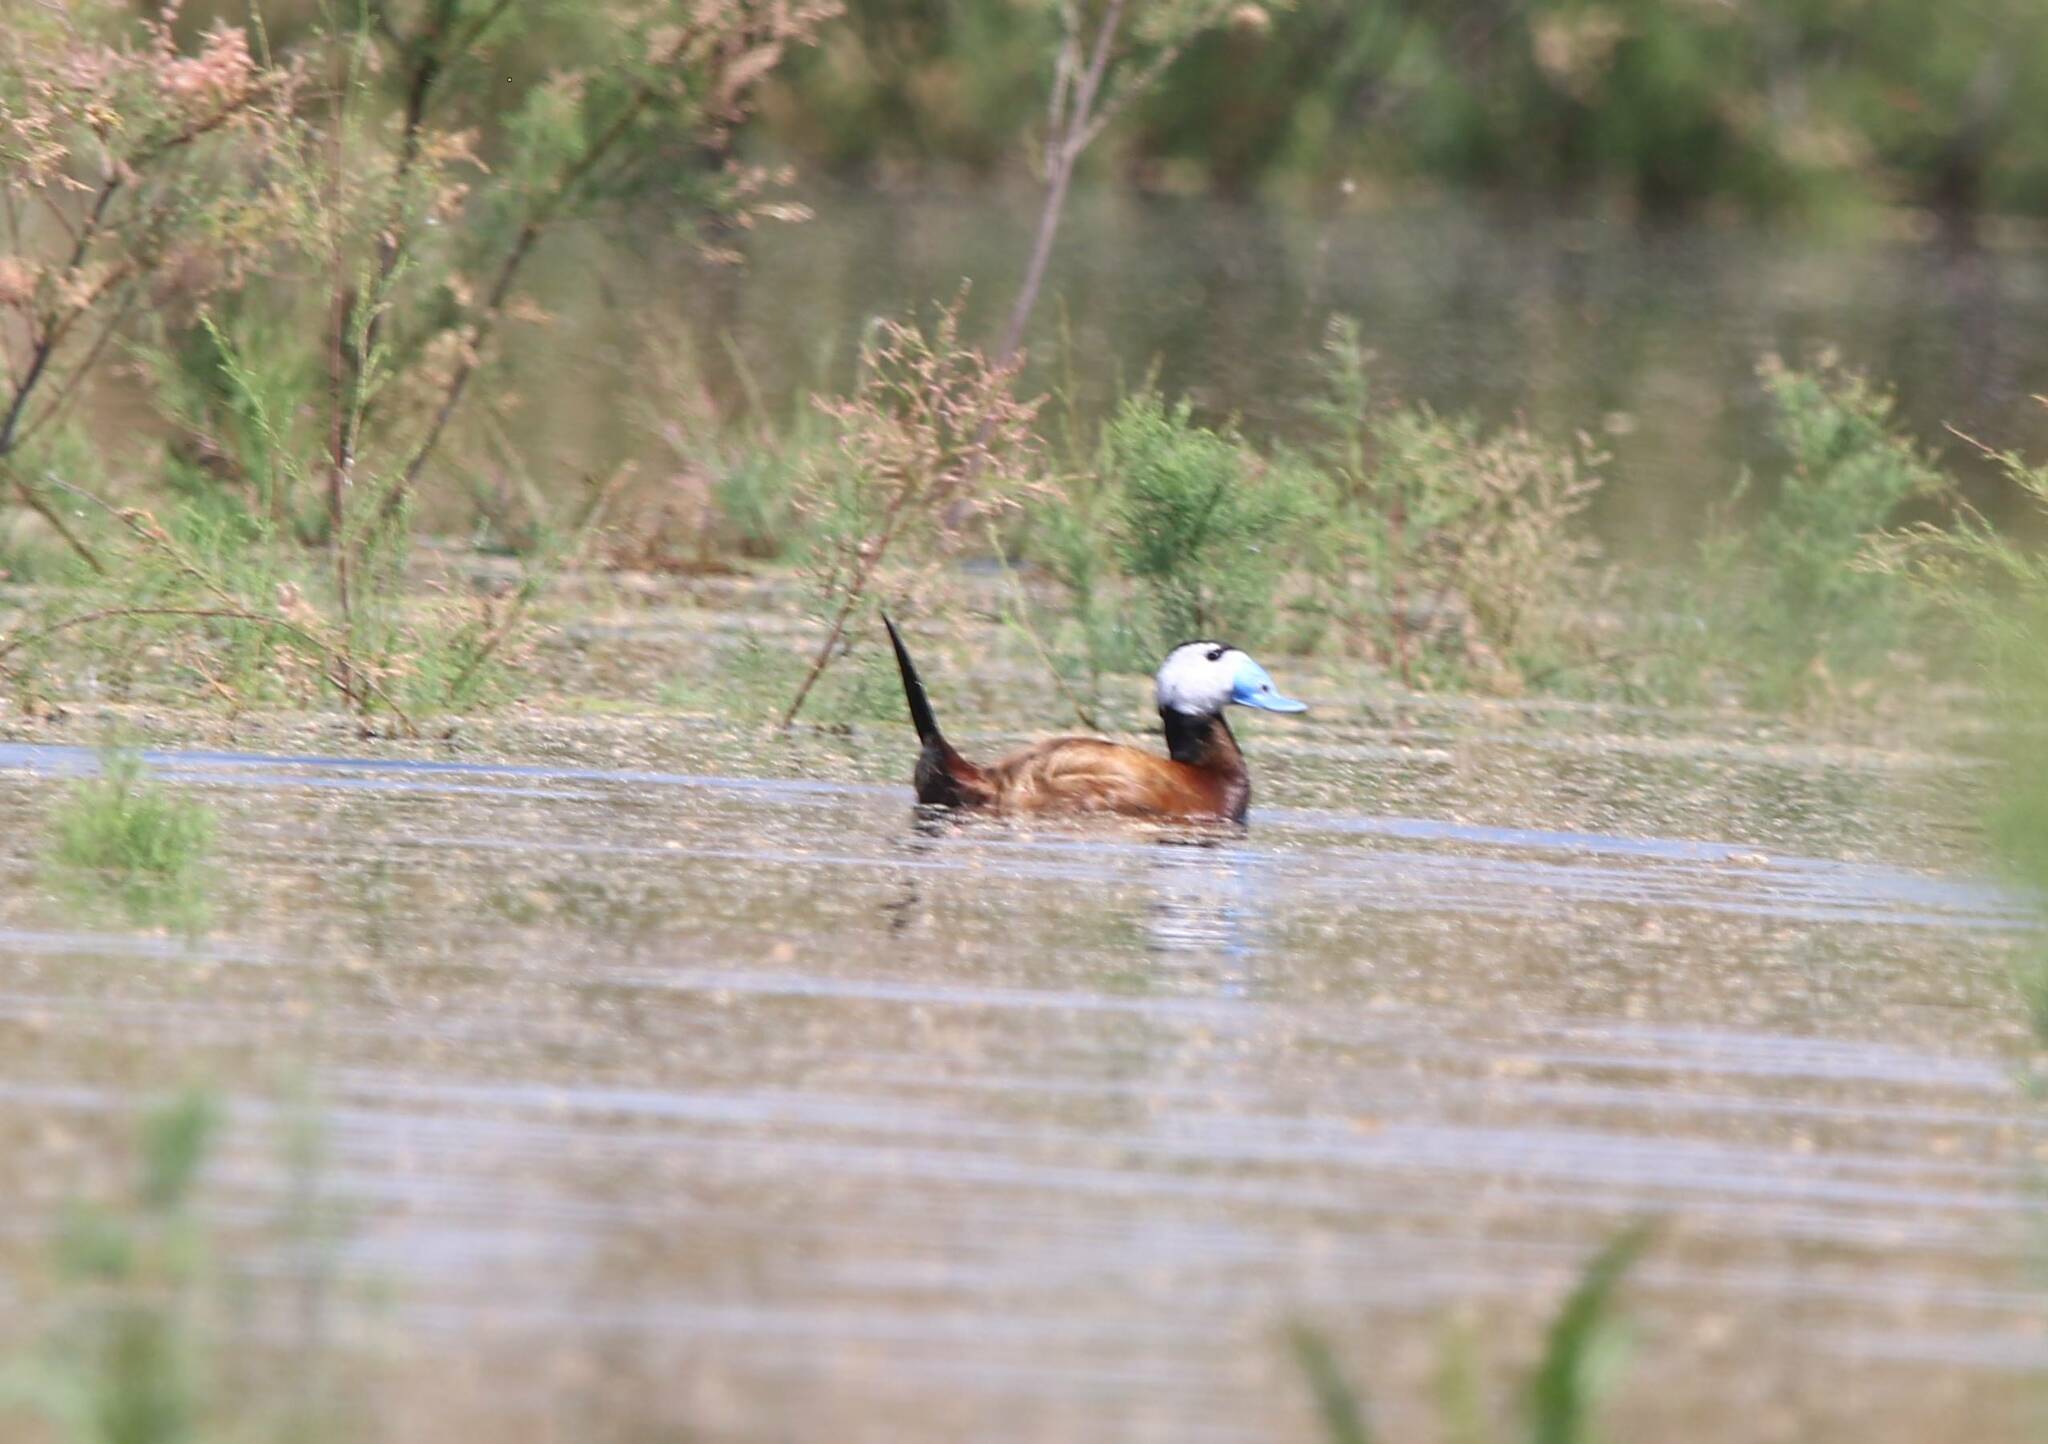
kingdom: Animalia
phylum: Chordata
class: Aves
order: Anseriformes
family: Anatidae
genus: Oxyura
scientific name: Oxyura leucocephala
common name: White-headed duck
